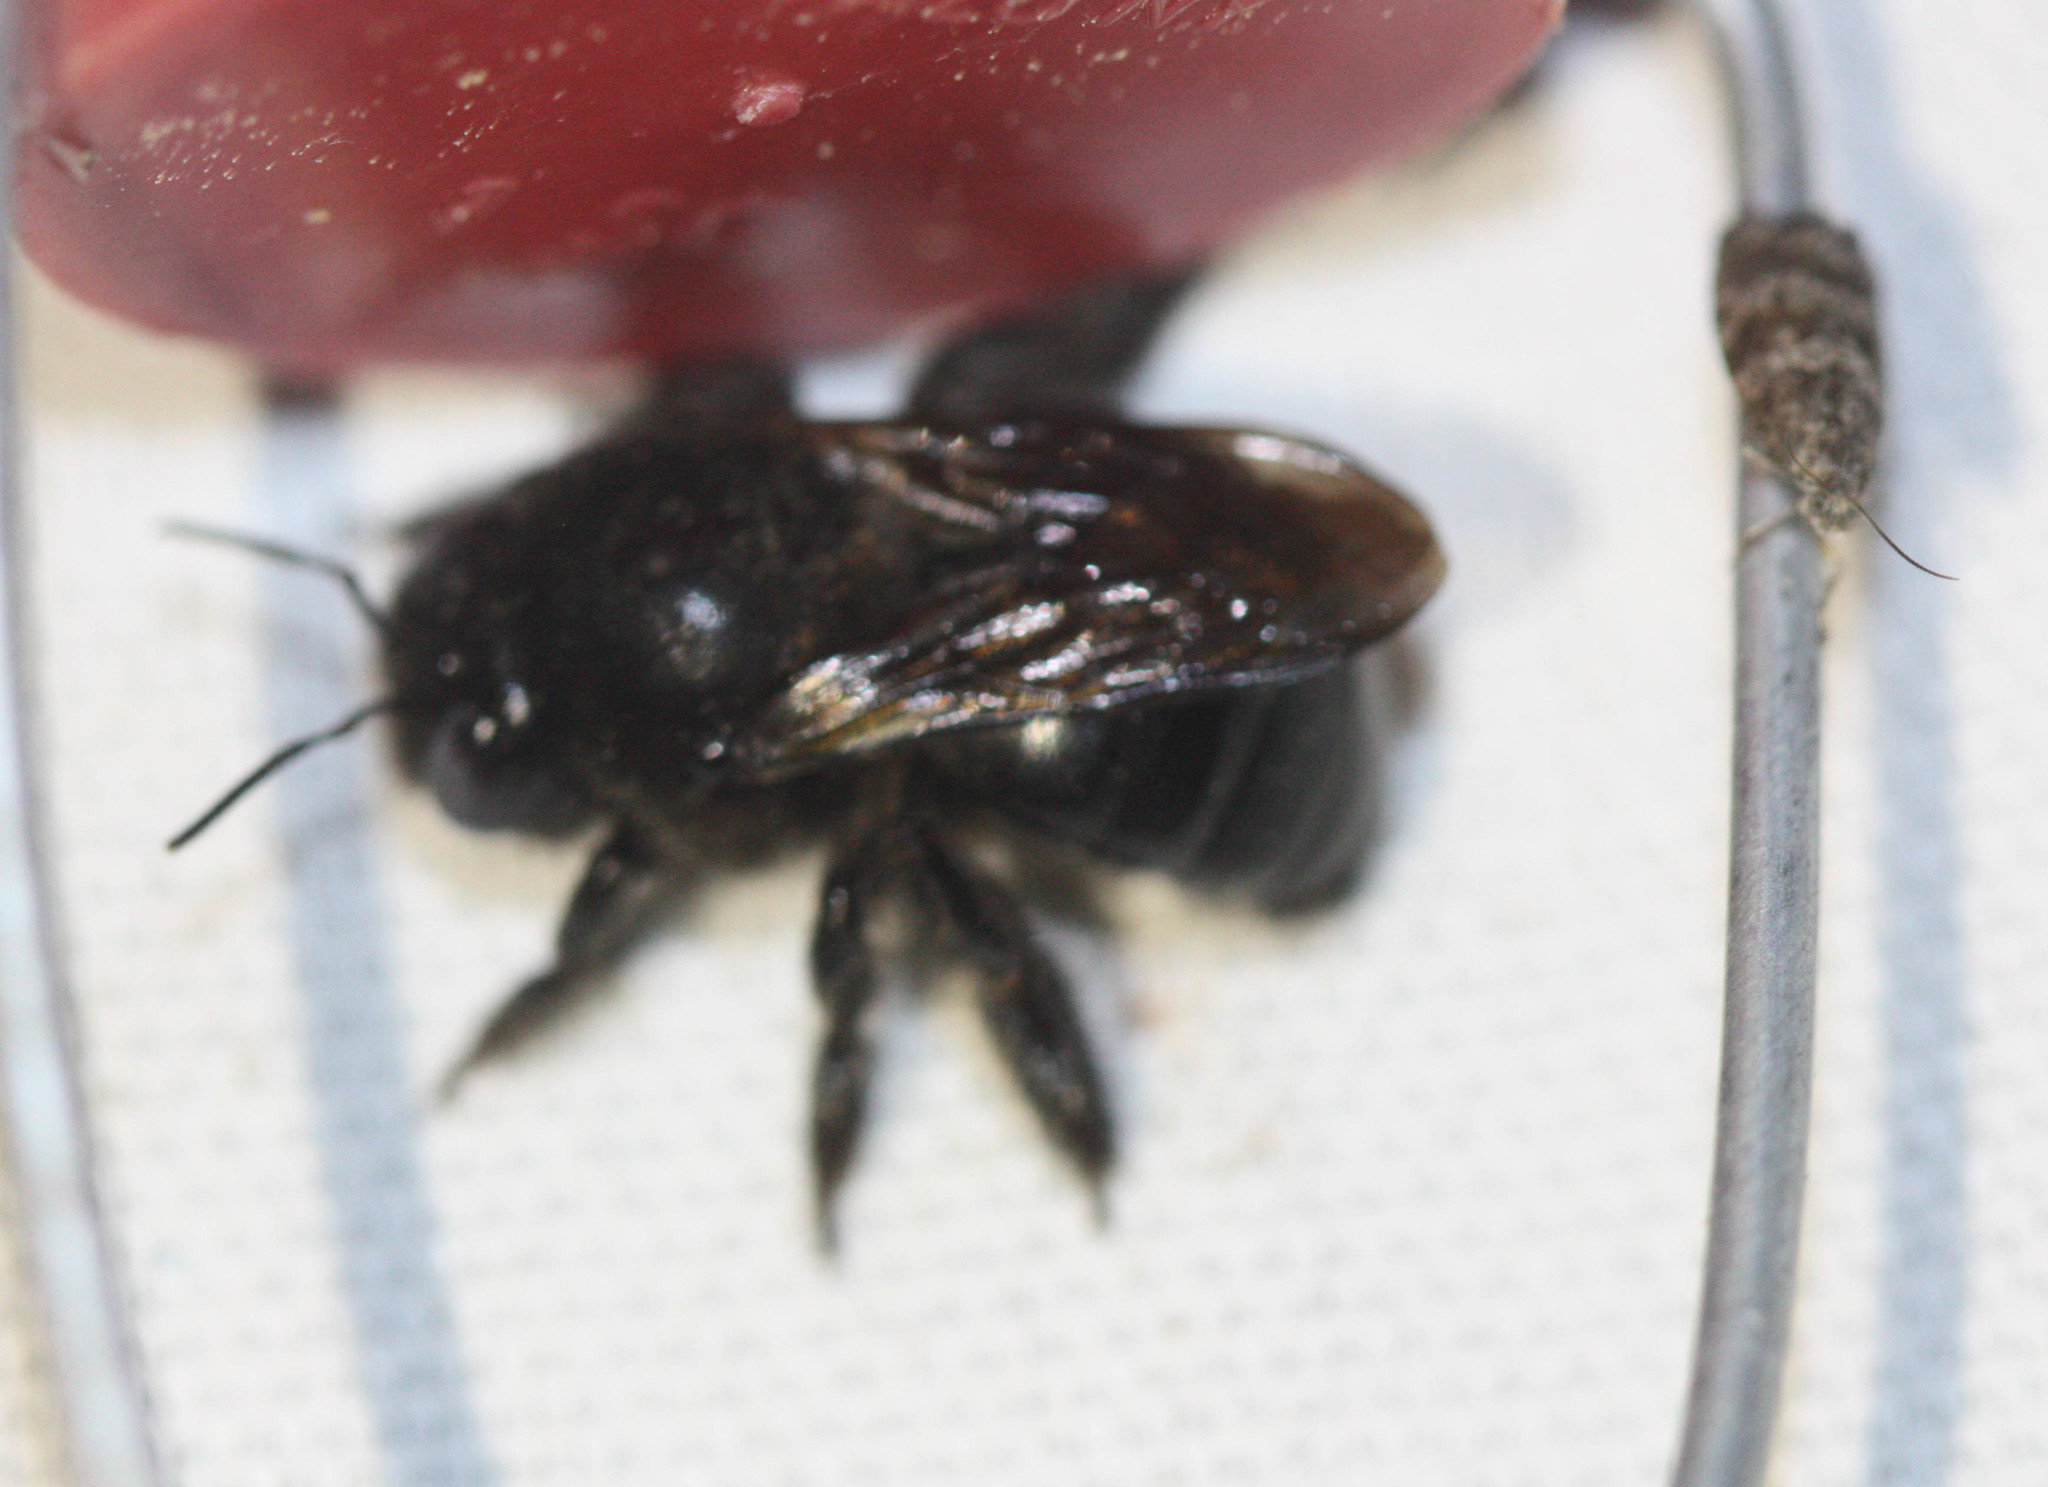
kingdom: Animalia
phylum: Arthropoda
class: Insecta
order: Hymenoptera
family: Apidae
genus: Xylocopa
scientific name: Xylocopa tabaniformis
